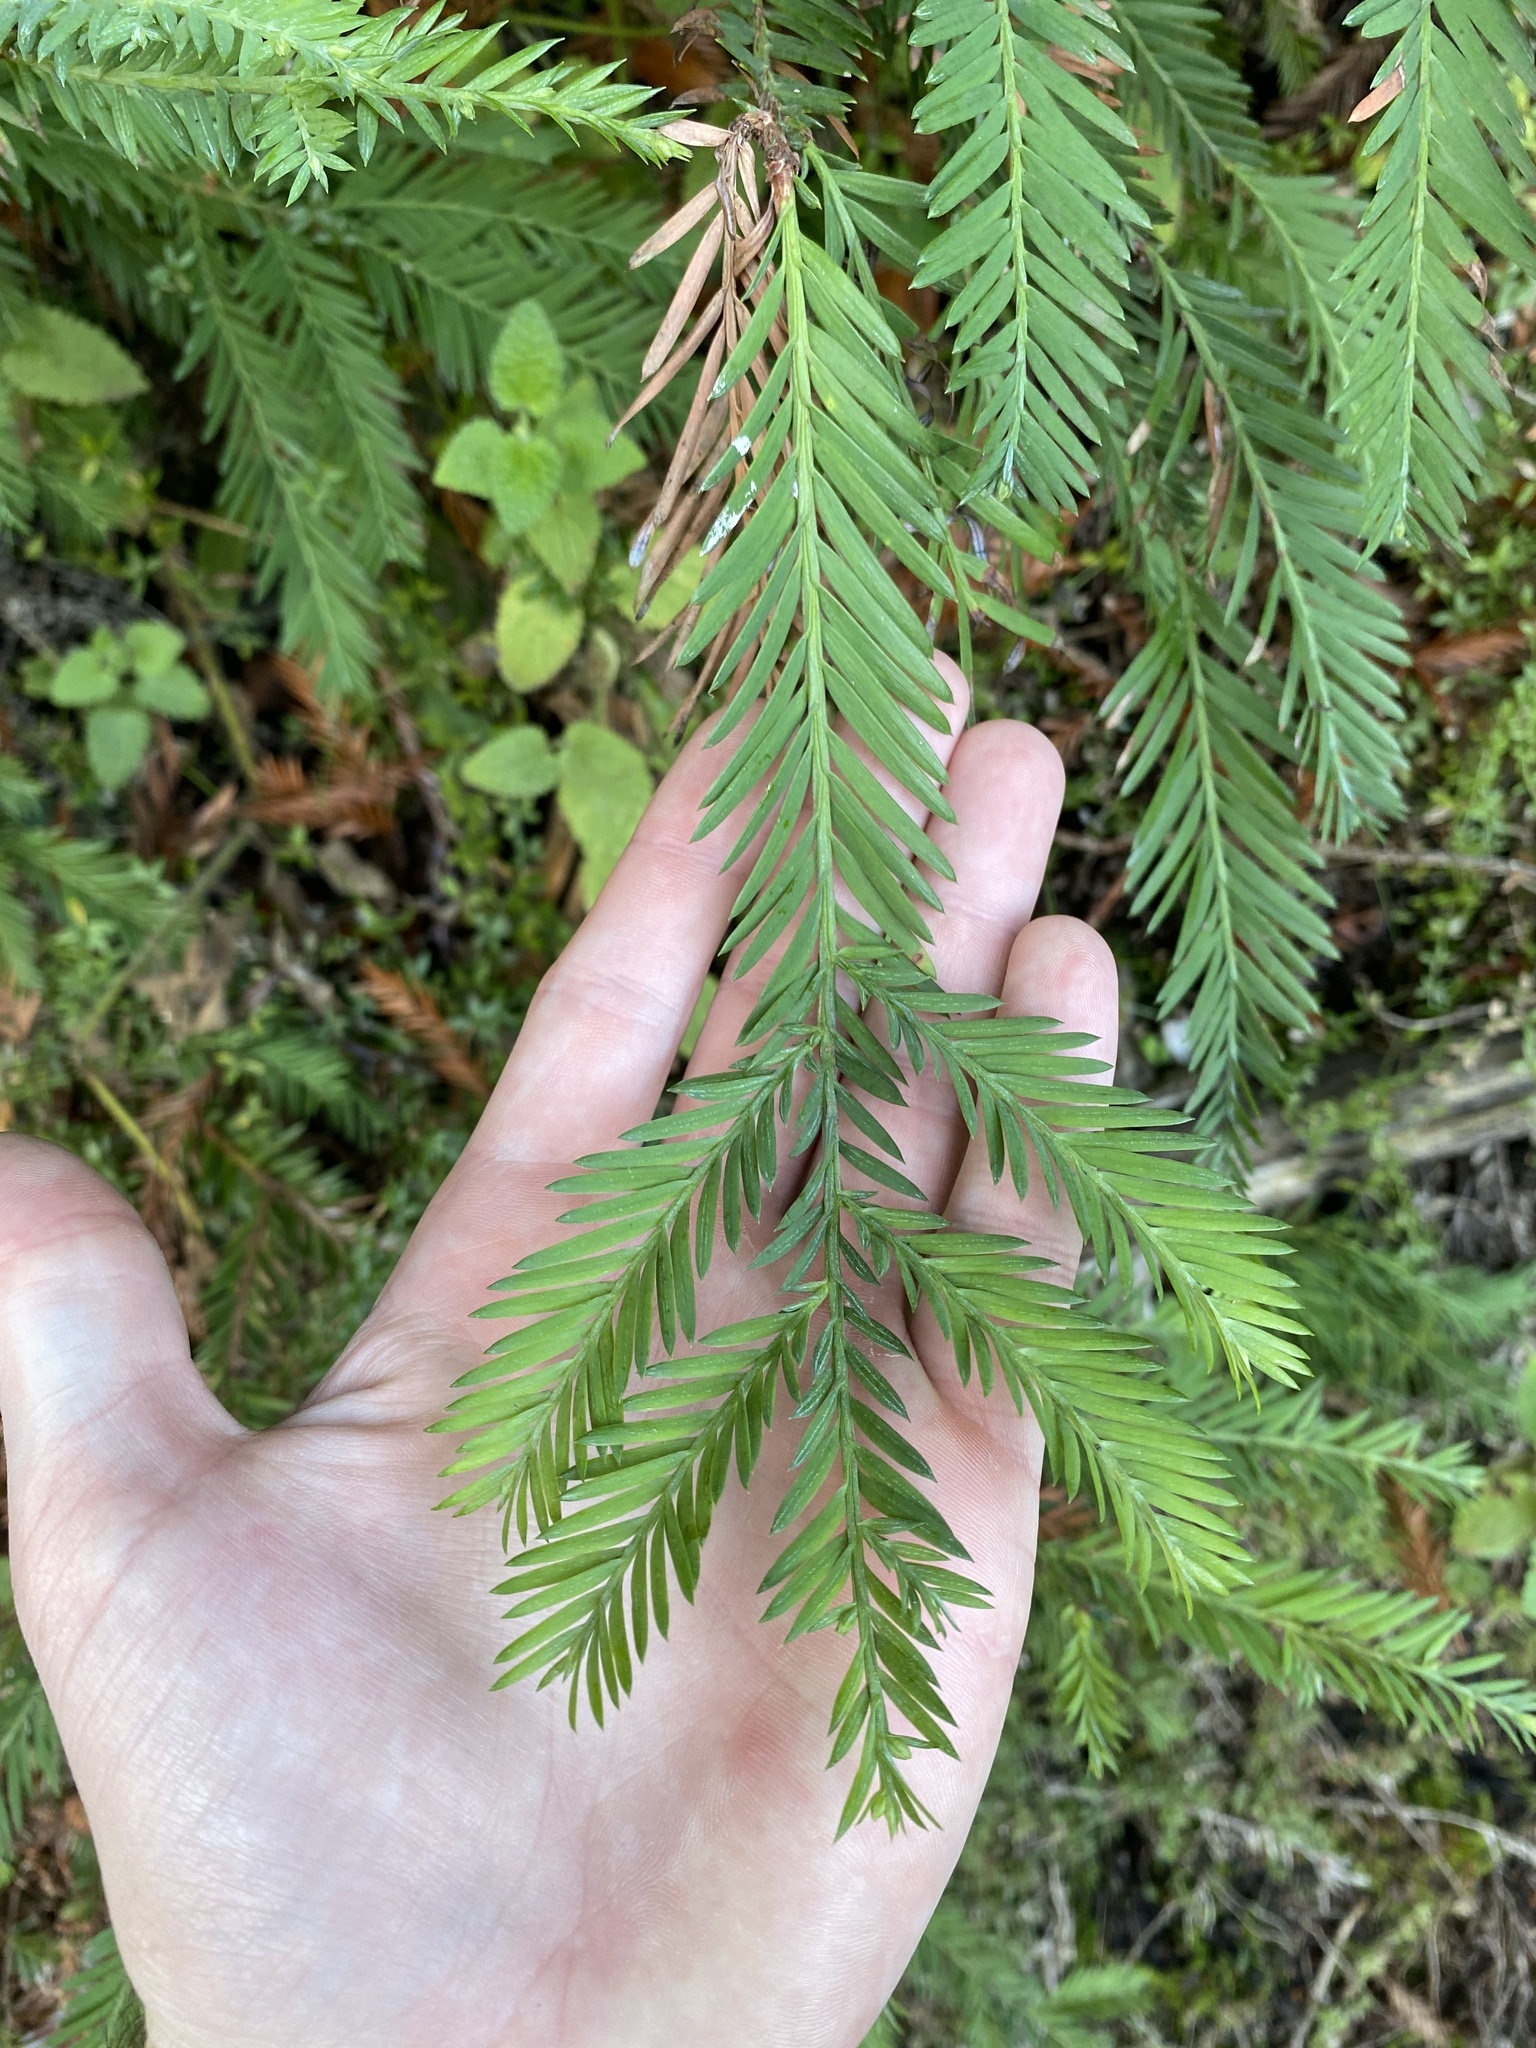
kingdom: Plantae
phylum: Tracheophyta
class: Pinopsida
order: Pinales
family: Cupressaceae
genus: Sequoia
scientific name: Sequoia sempervirens
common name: Coast redwood
